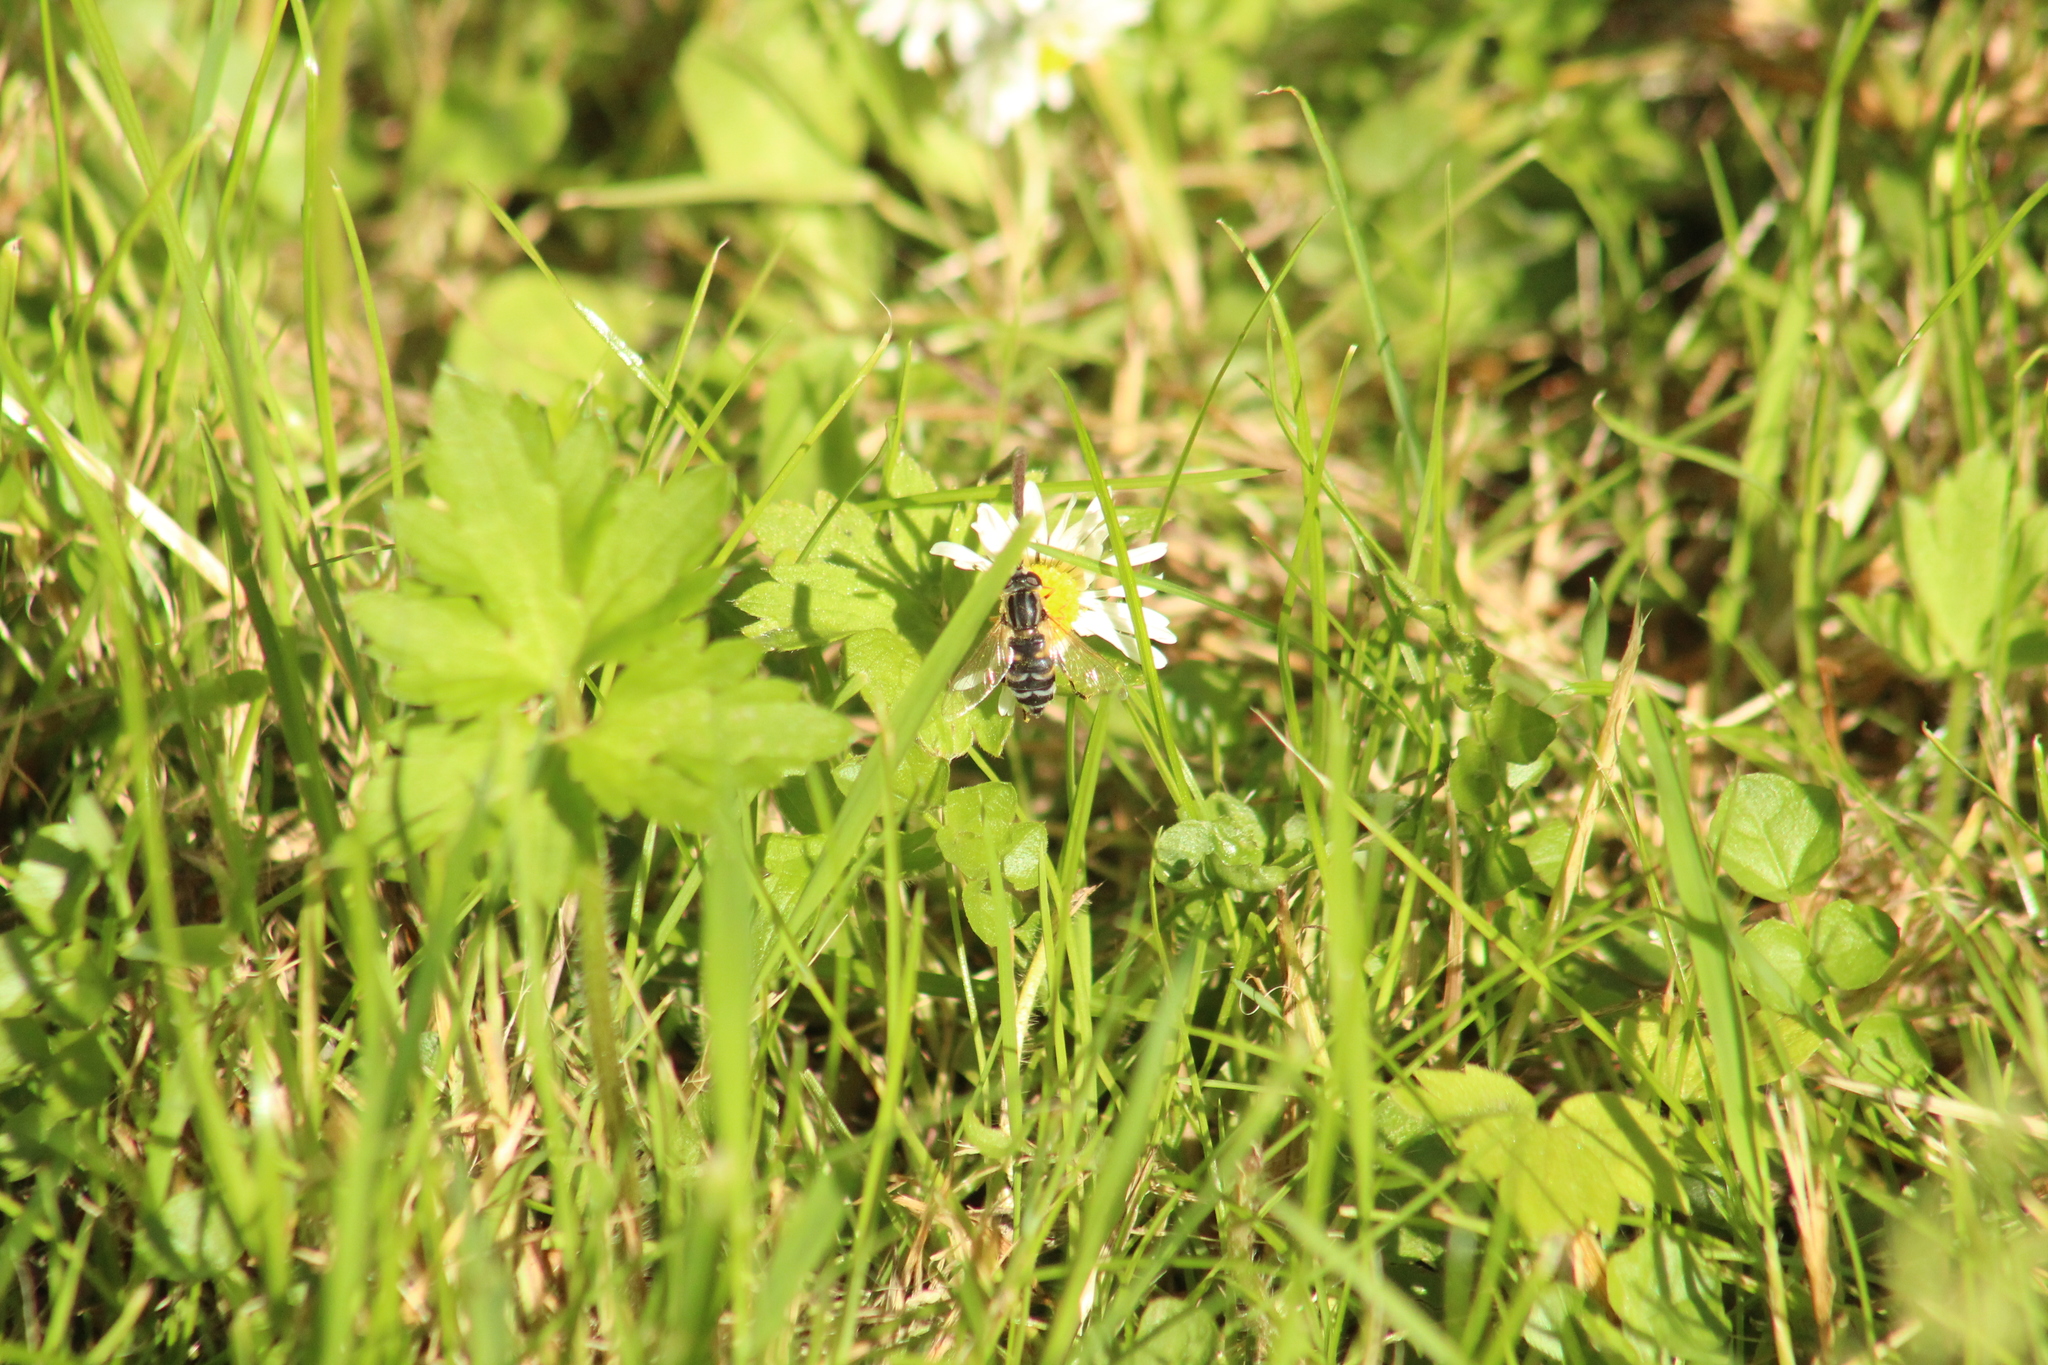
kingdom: Animalia
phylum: Arthropoda
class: Insecta
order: Diptera
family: Syrphidae
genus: Helophilus
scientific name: Helophilus trivittatus
